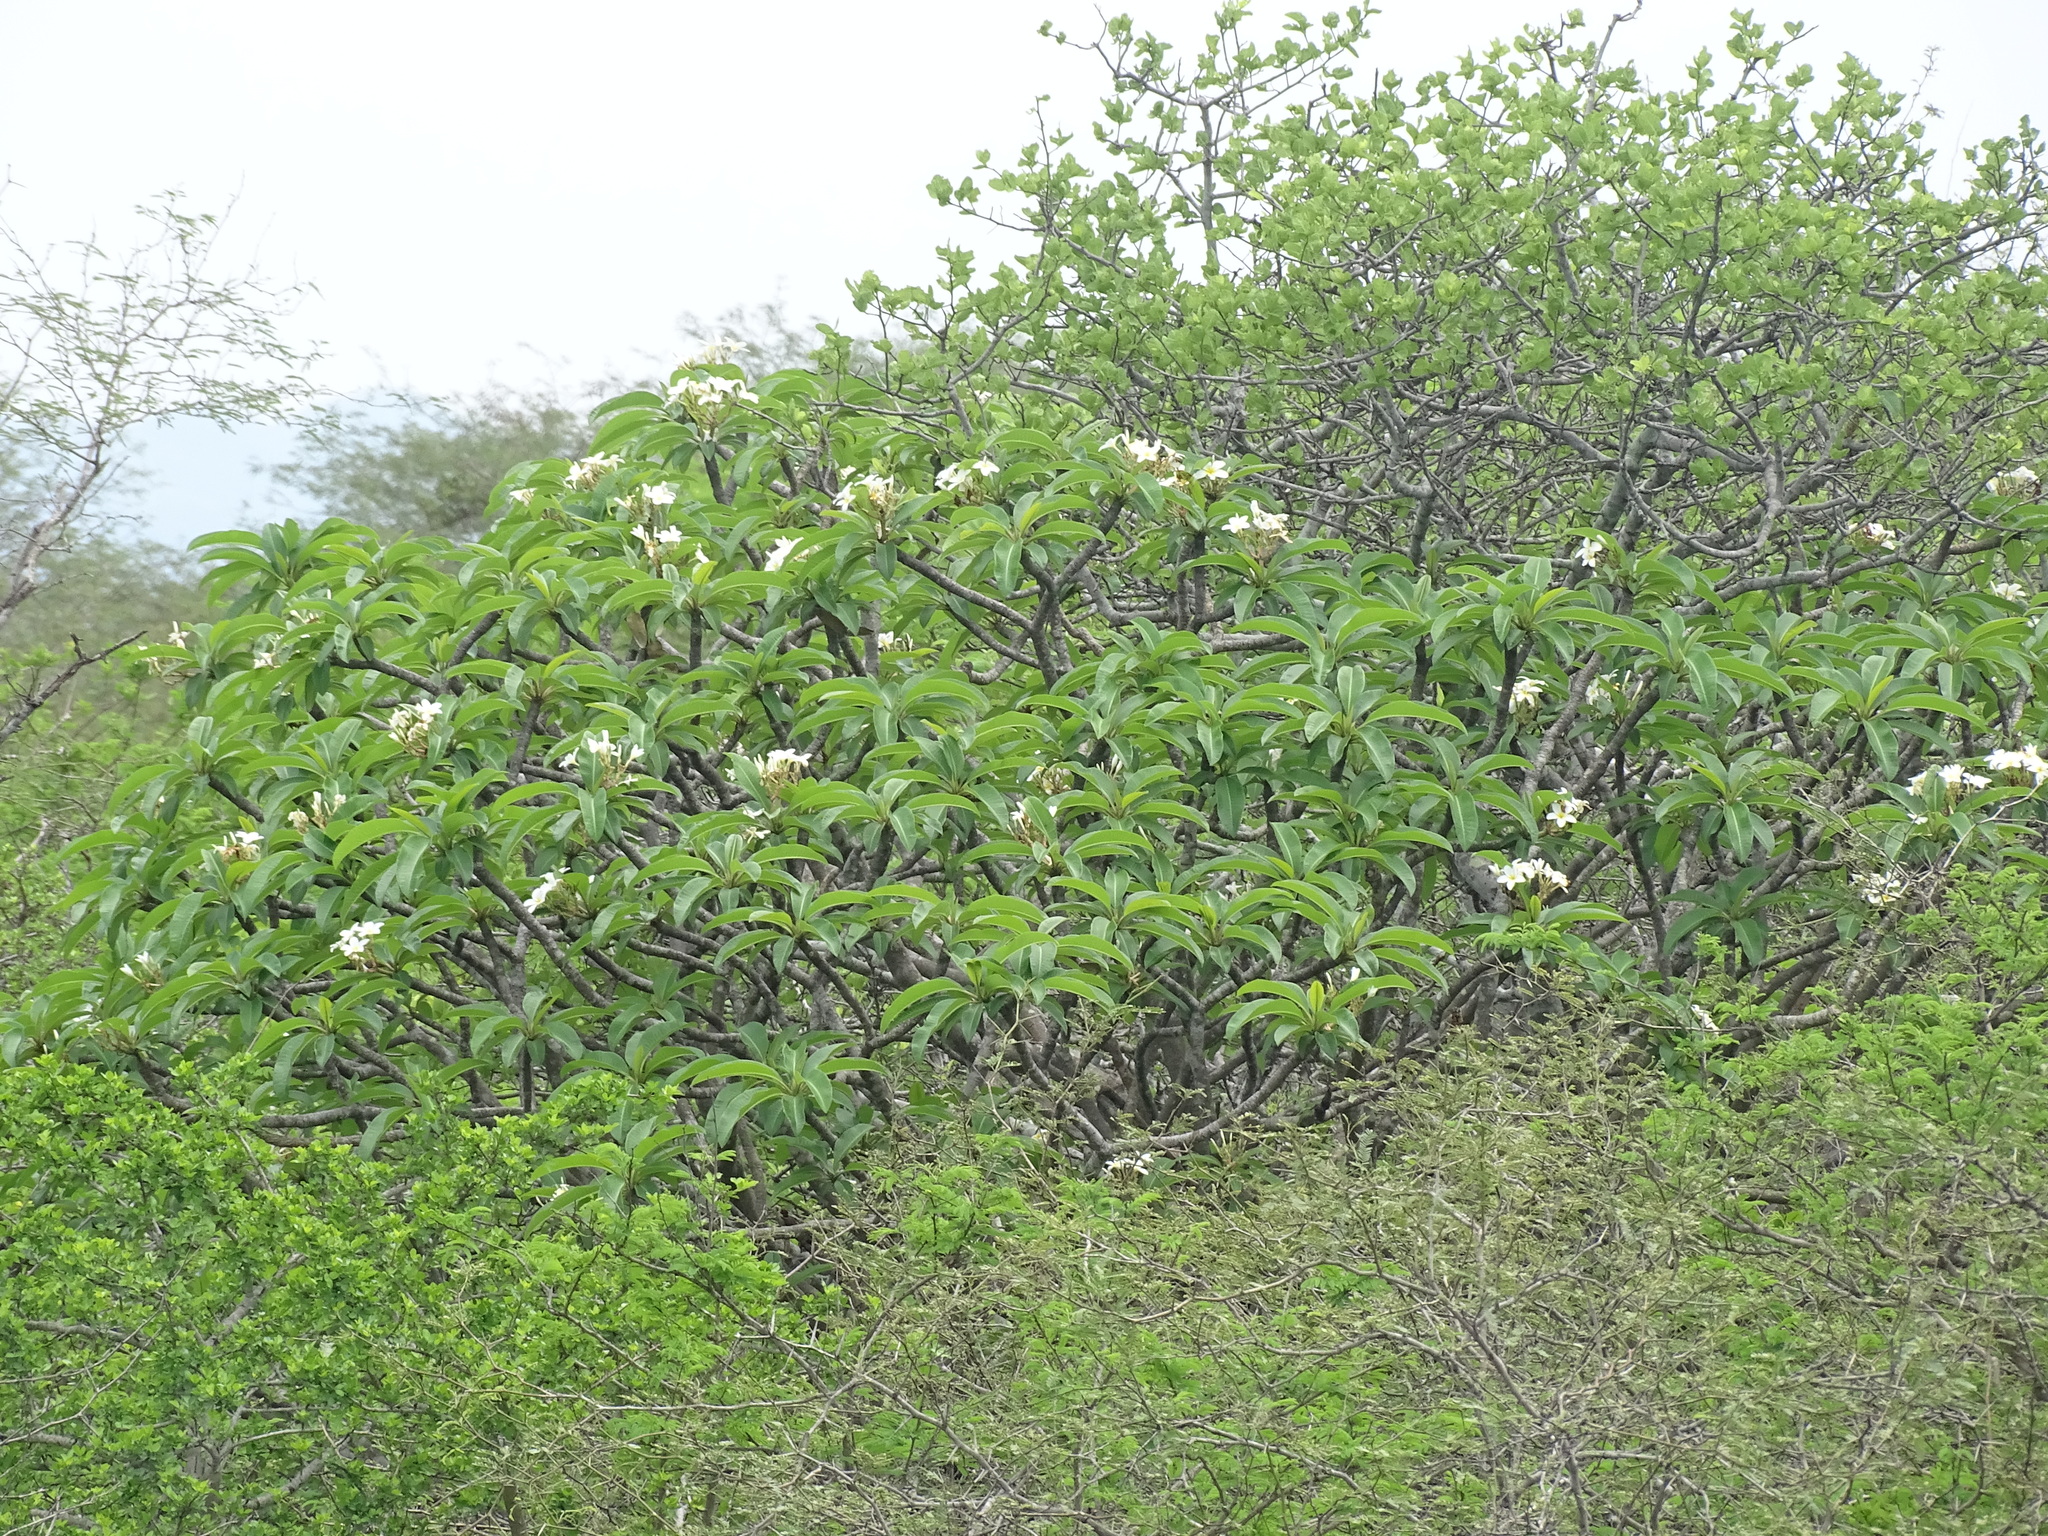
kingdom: Plantae
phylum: Tracheophyta
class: Magnoliopsida
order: Gentianales
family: Apocynaceae
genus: Plumeria
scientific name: Plumeria rubra
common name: Pagoda-tree
